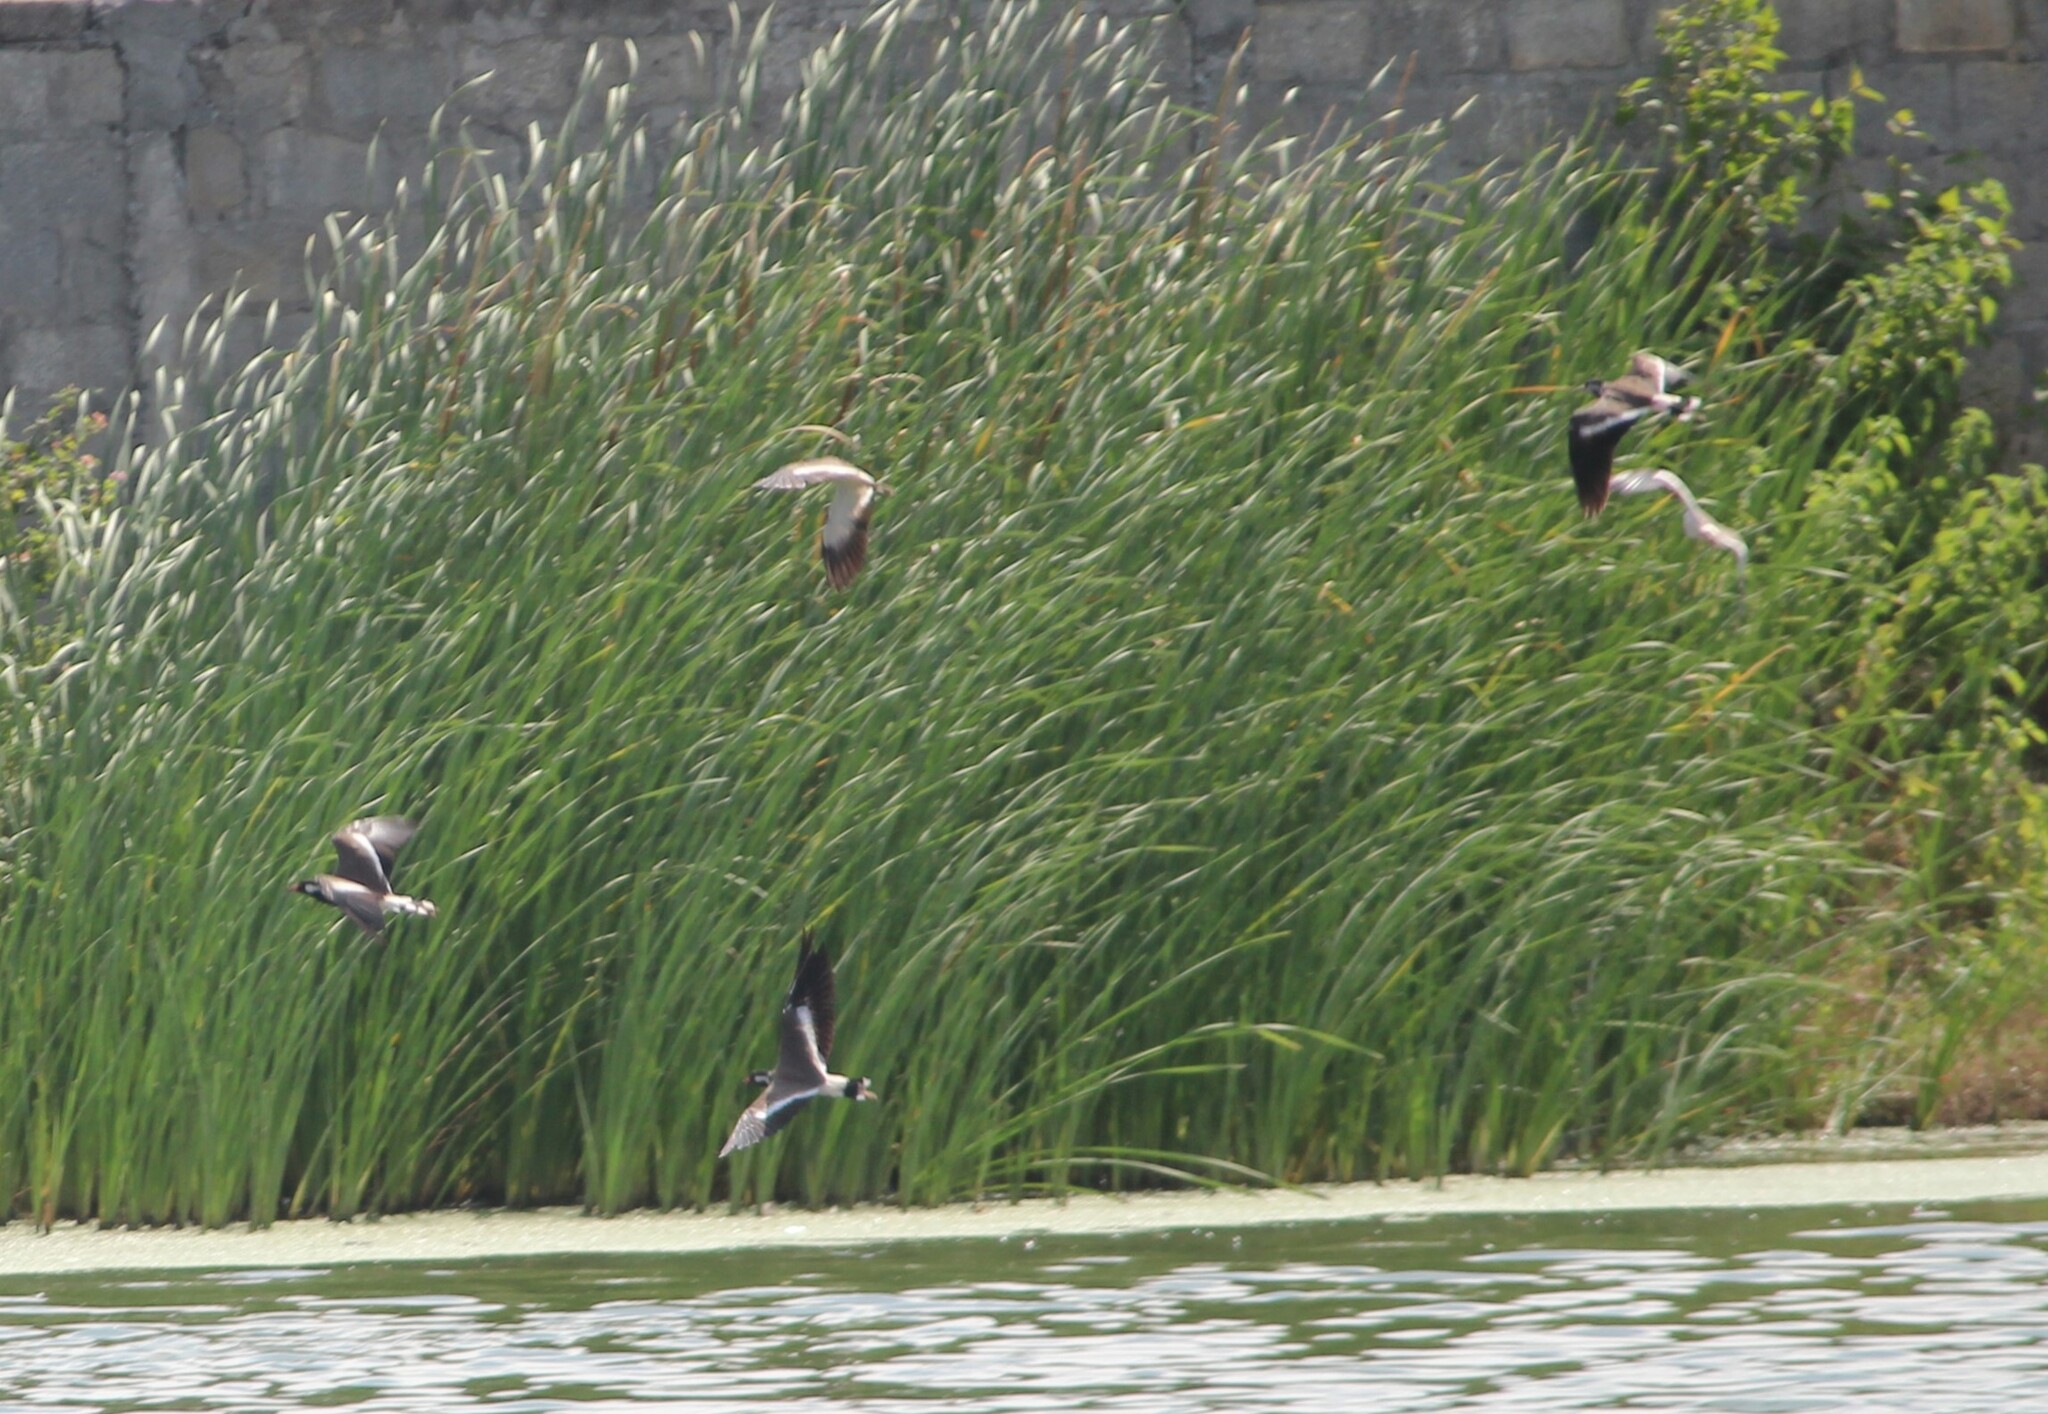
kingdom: Animalia
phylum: Chordata
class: Aves
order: Charadriiformes
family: Charadriidae
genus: Vanellus
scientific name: Vanellus indicus
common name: Red-wattled lapwing
